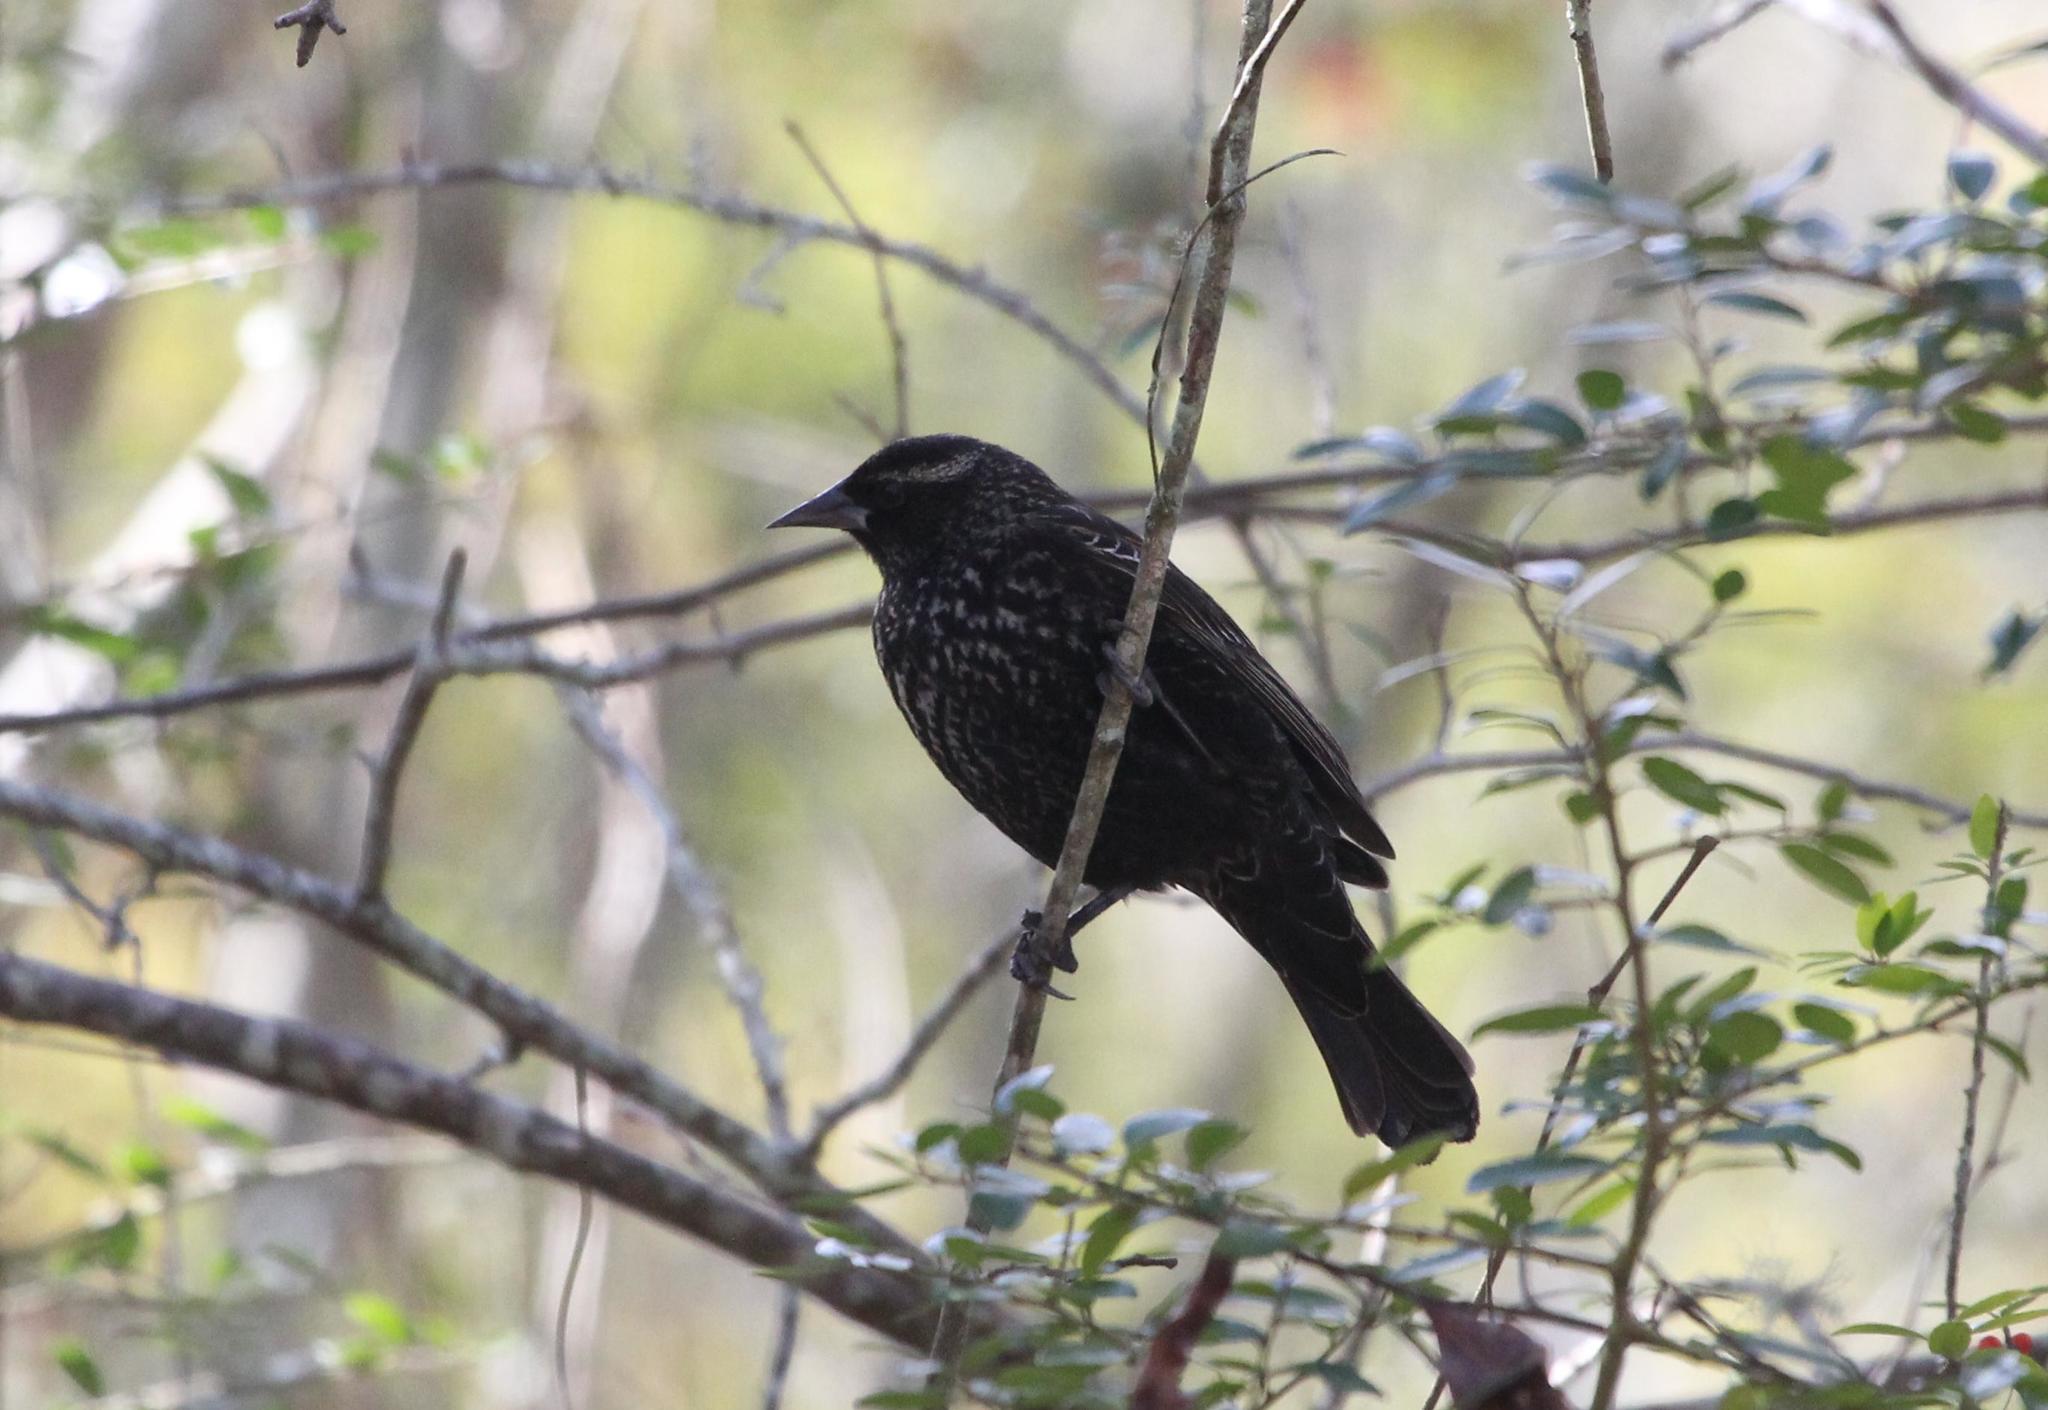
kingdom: Animalia
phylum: Chordata
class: Aves
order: Passeriformes
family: Icteridae
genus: Agelaius
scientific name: Agelaius phoeniceus
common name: Red-winged blackbird
